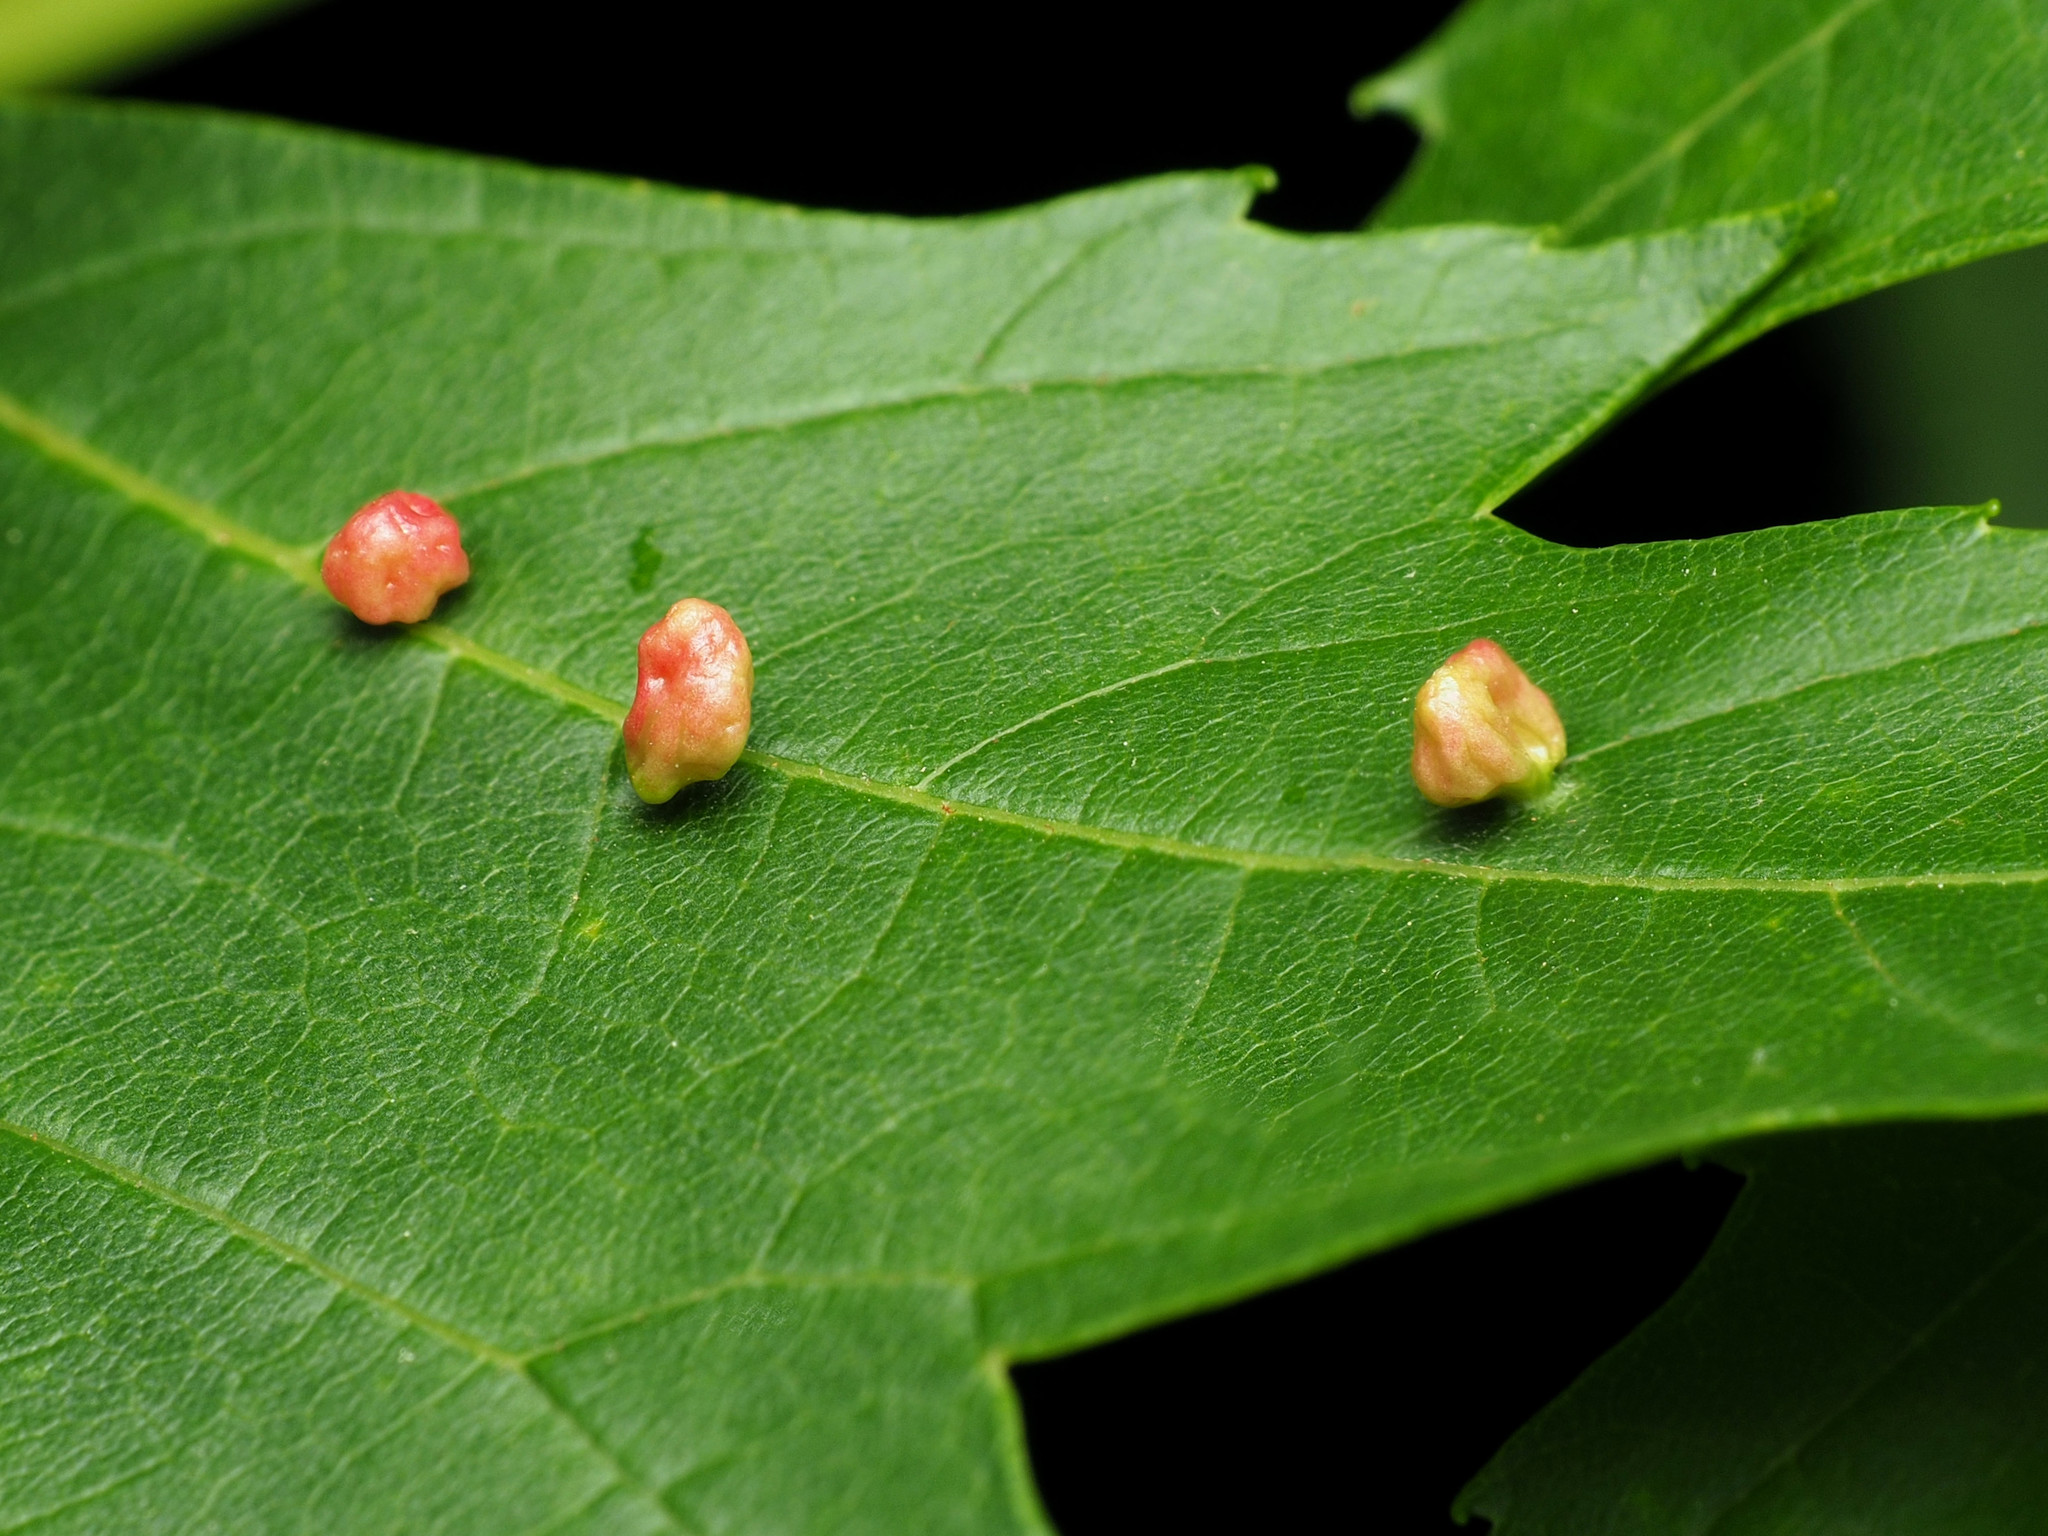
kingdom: Animalia
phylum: Arthropoda
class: Arachnida
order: Trombidiformes
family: Eriophyidae
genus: Vasates
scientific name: Vasates quadripedes
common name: Maple bladder gall mite
